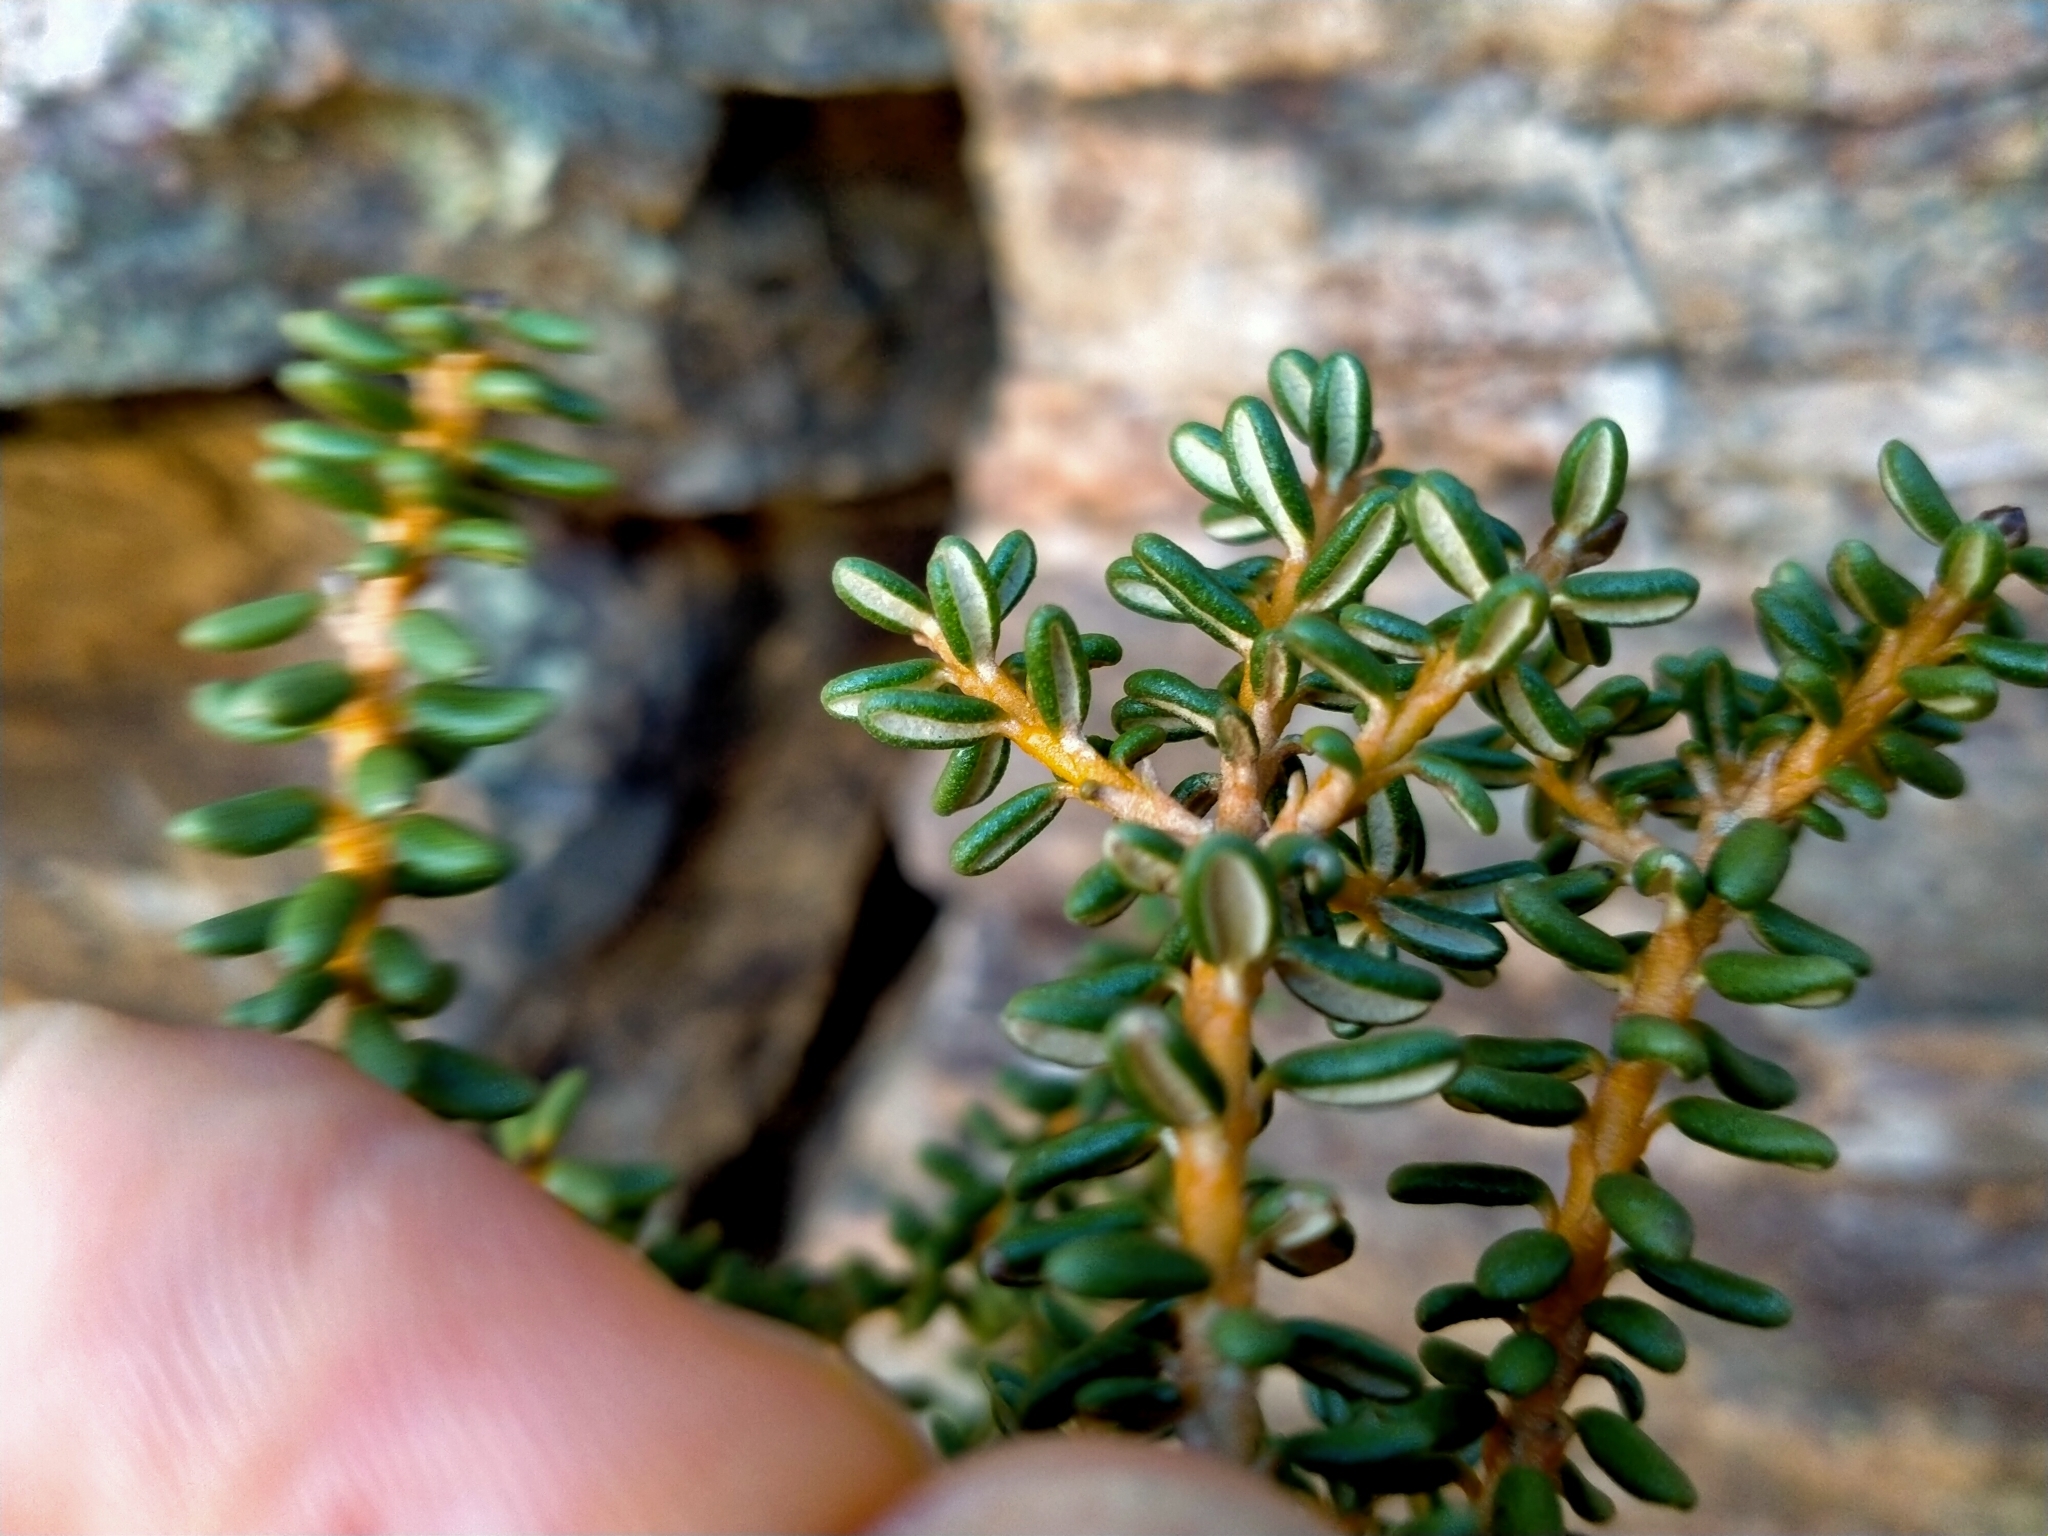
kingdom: Plantae
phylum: Tracheophyta
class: Magnoliopsida
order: Asterales
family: Asteraceae
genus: Olearia
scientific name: Olearia cymbifolia
